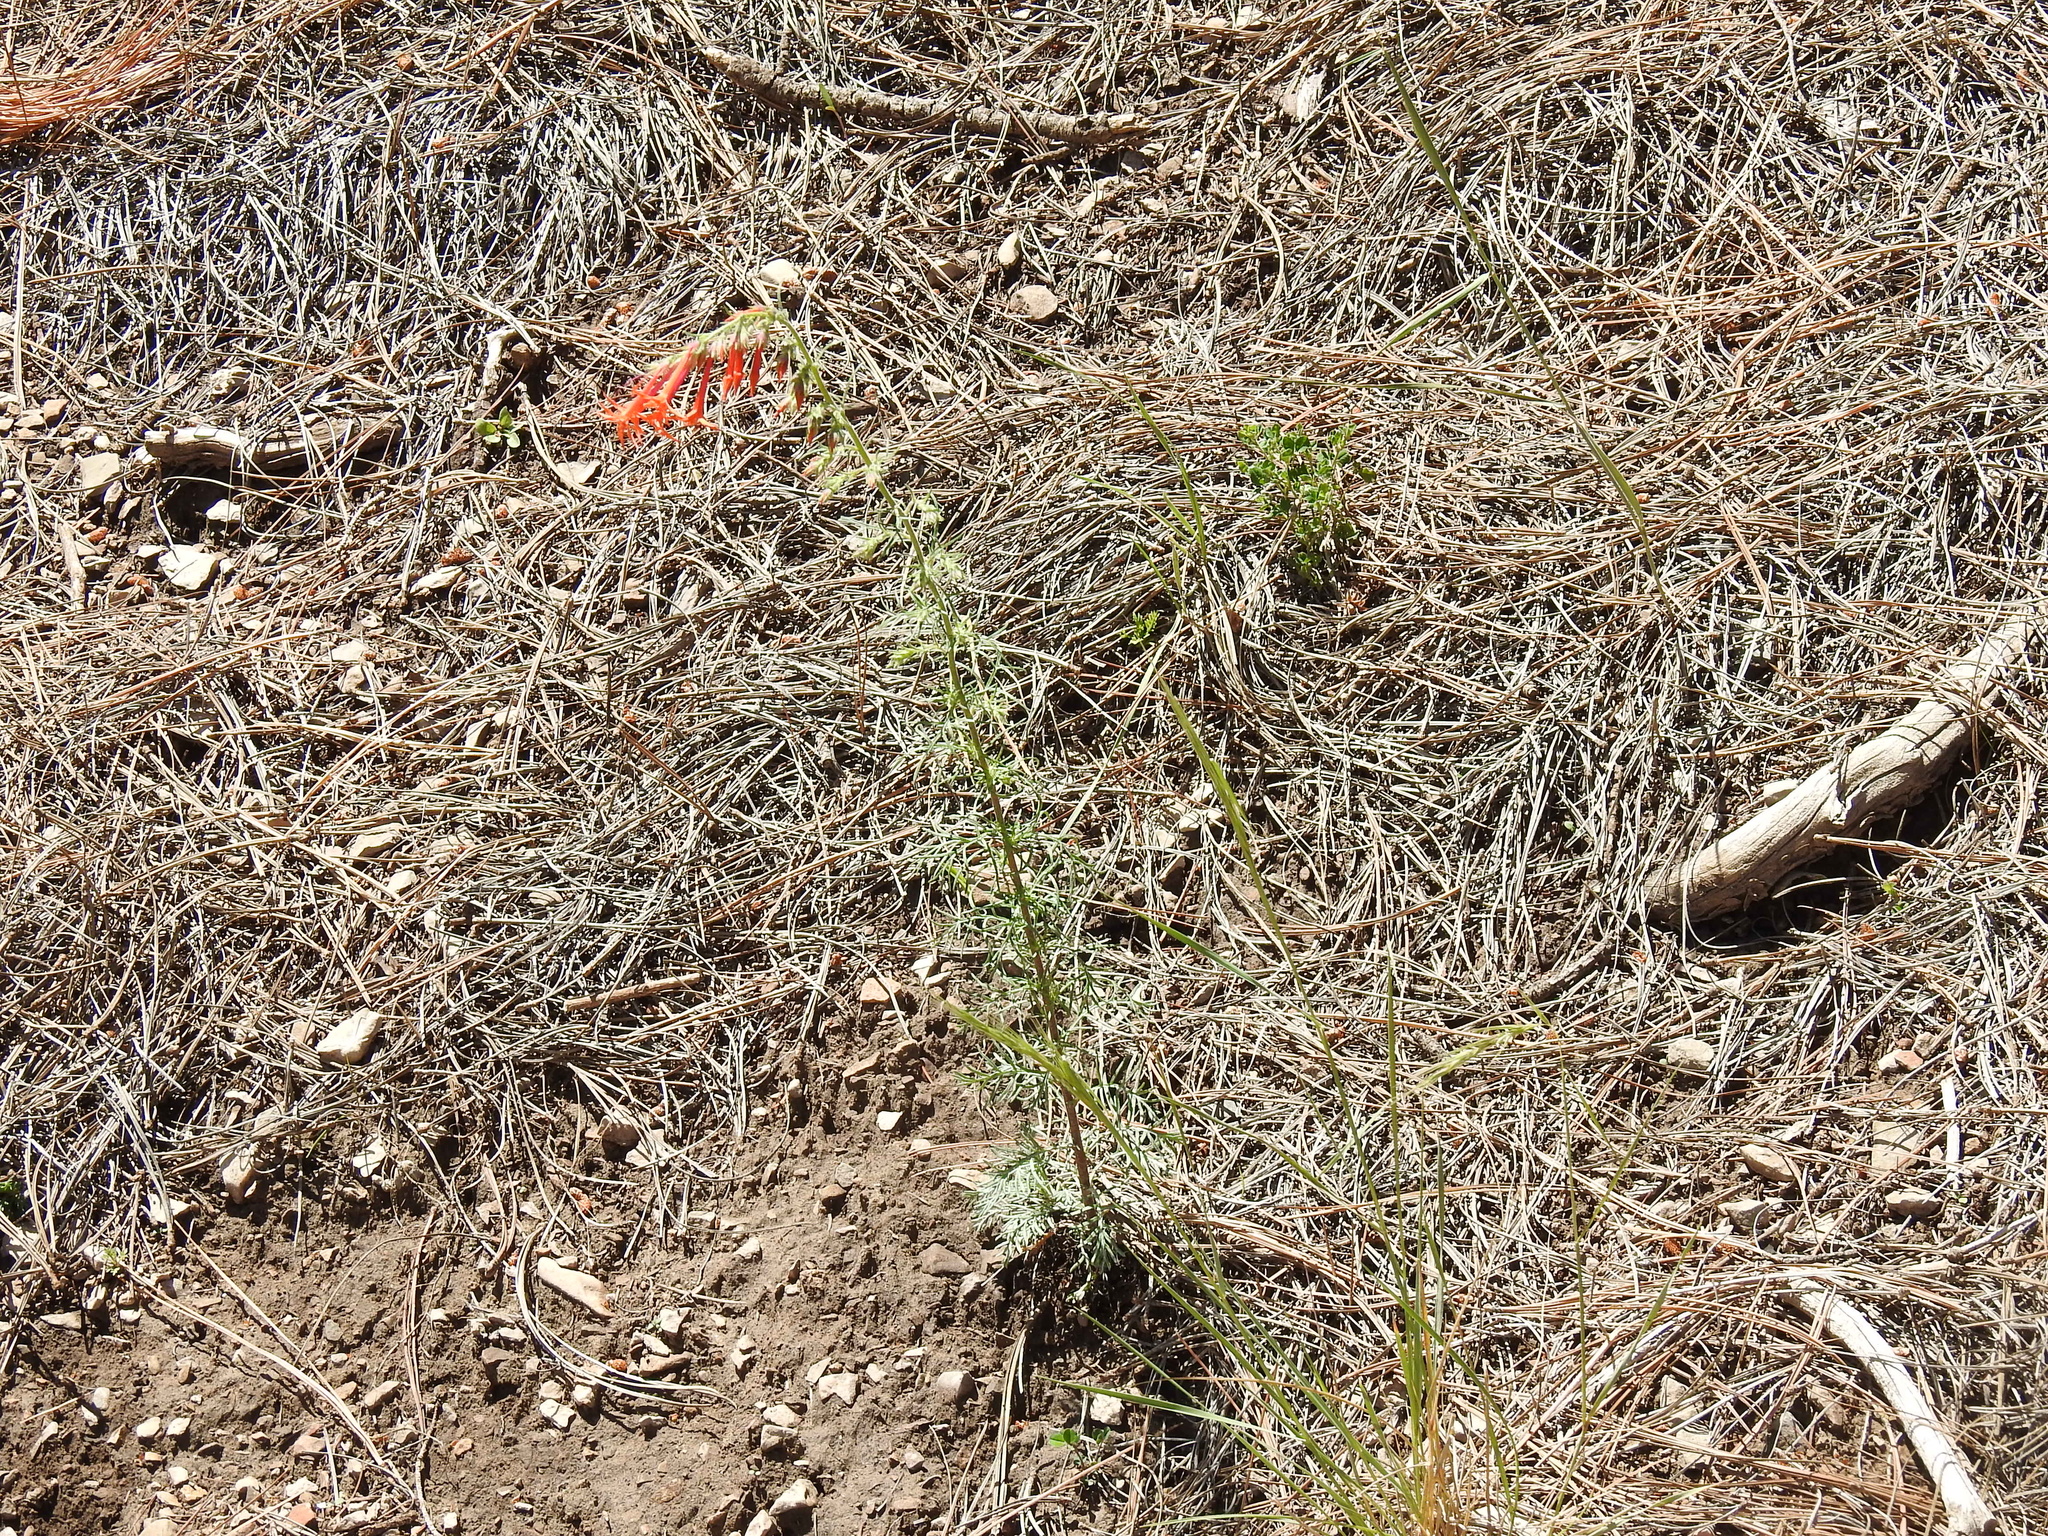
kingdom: Plantae
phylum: Tracheophyta
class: Magnoliopsida
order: Ericales
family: Polemoniaceae
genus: Ipomopsis
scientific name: Ipomopsis aggregata
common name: Scarlet gilia
